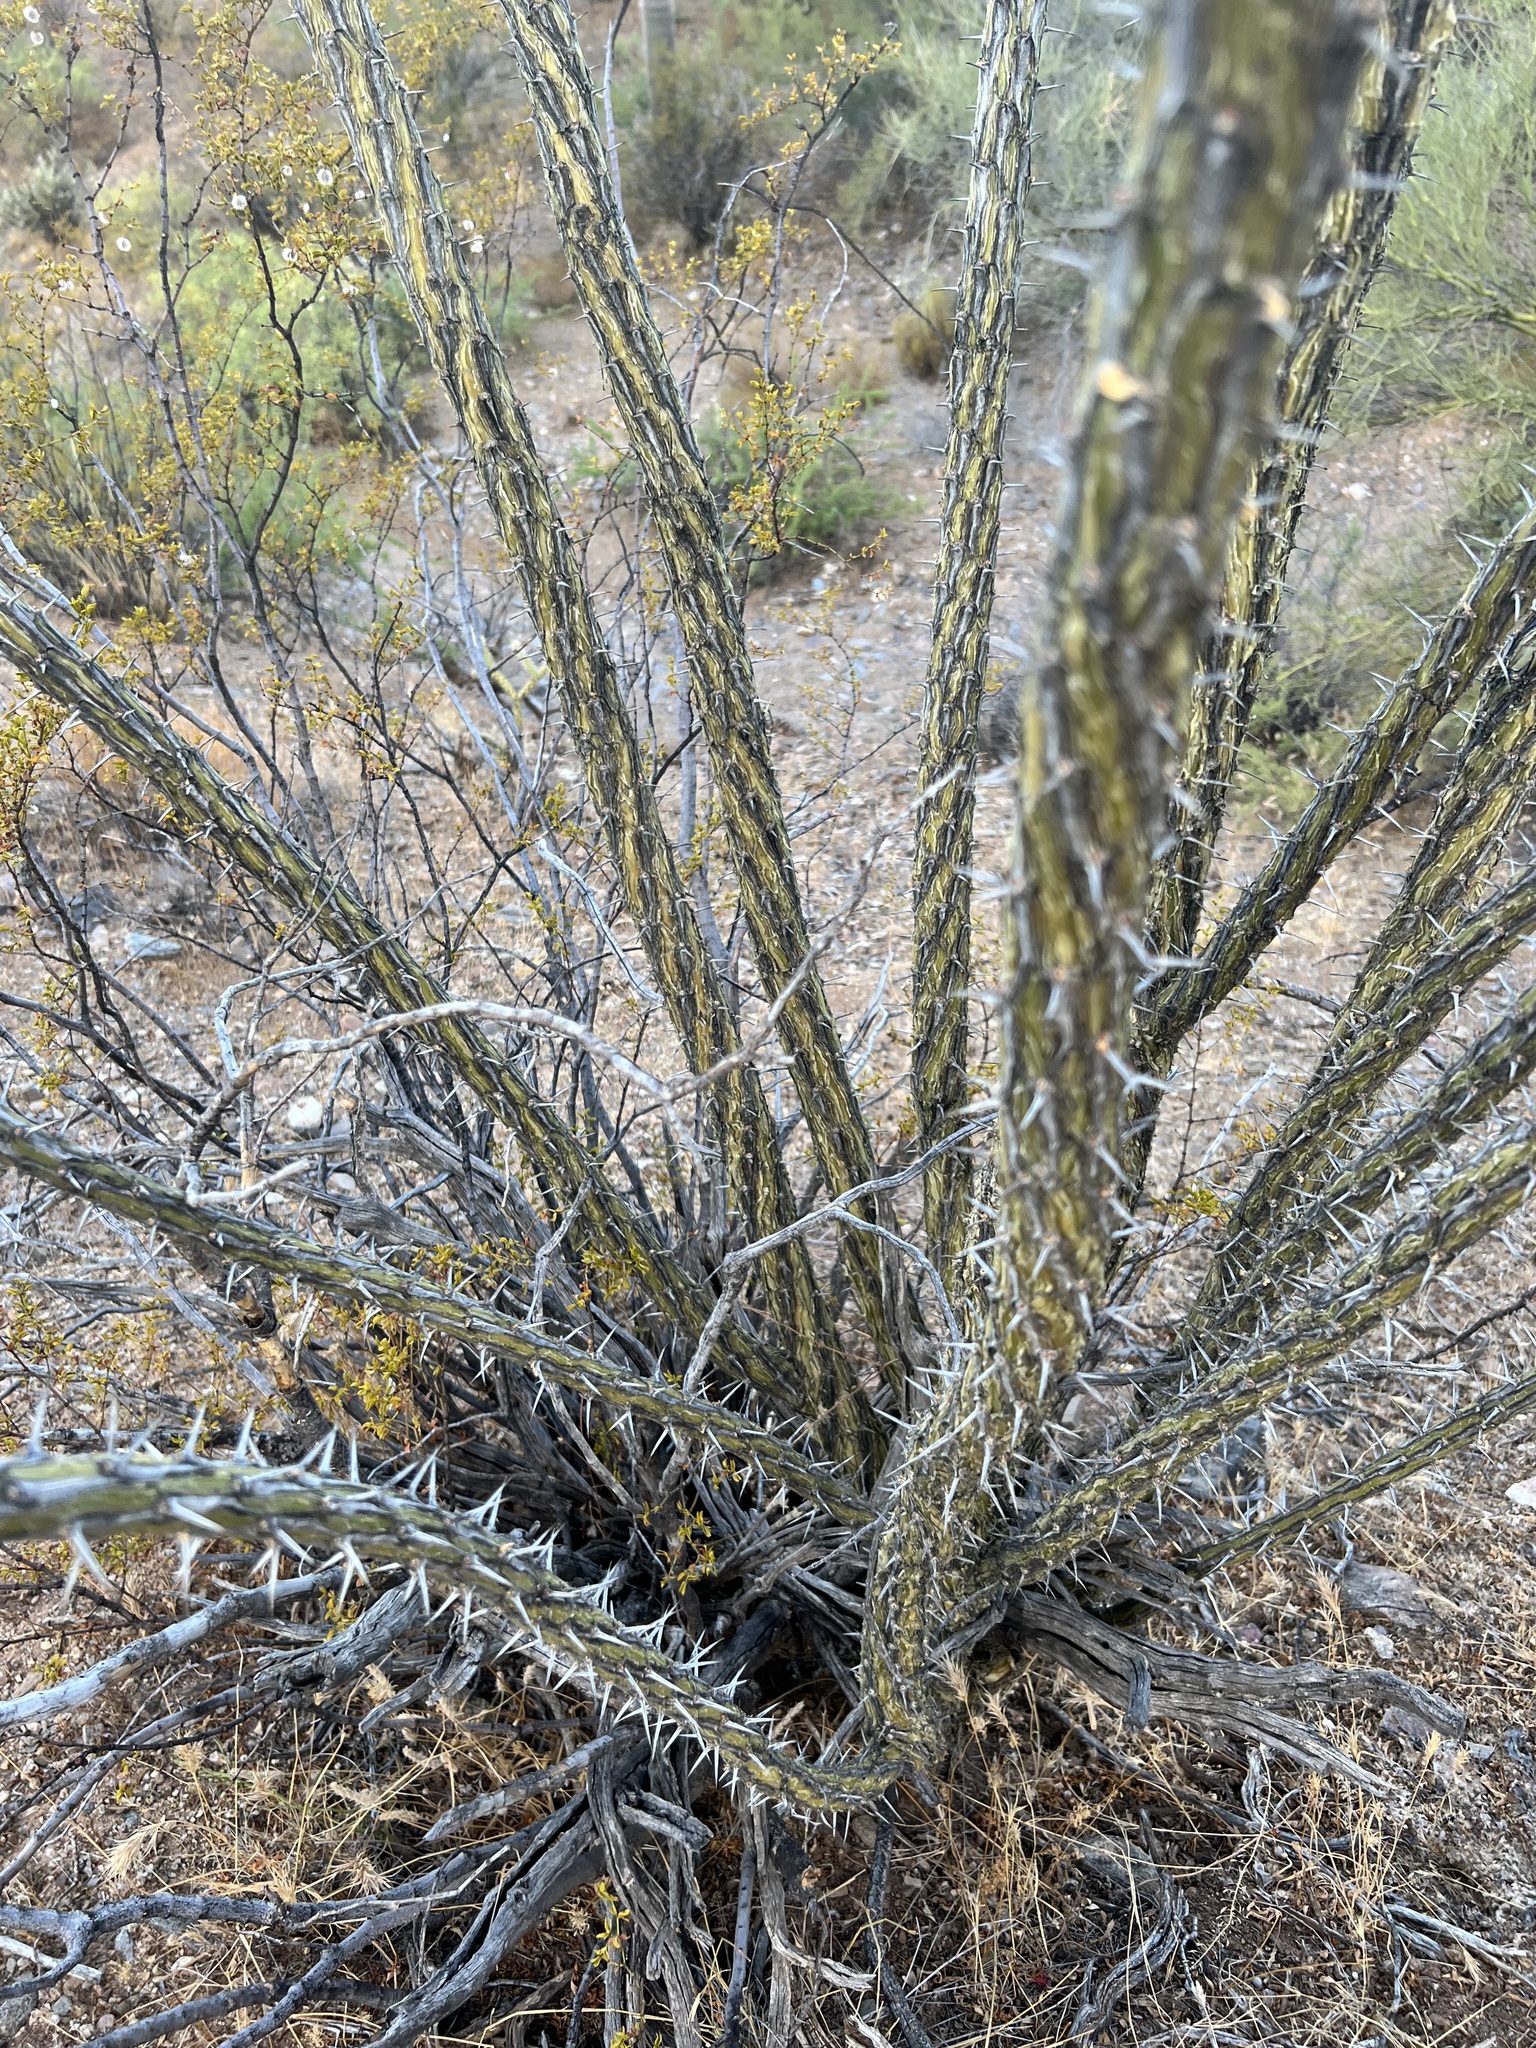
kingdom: Plantae
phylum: Tracheophyta
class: Magnoliopsida
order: Ericales
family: Fouquieriaceae
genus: Fouquieria
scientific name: Fouquieria splendens
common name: Vine-cactus
